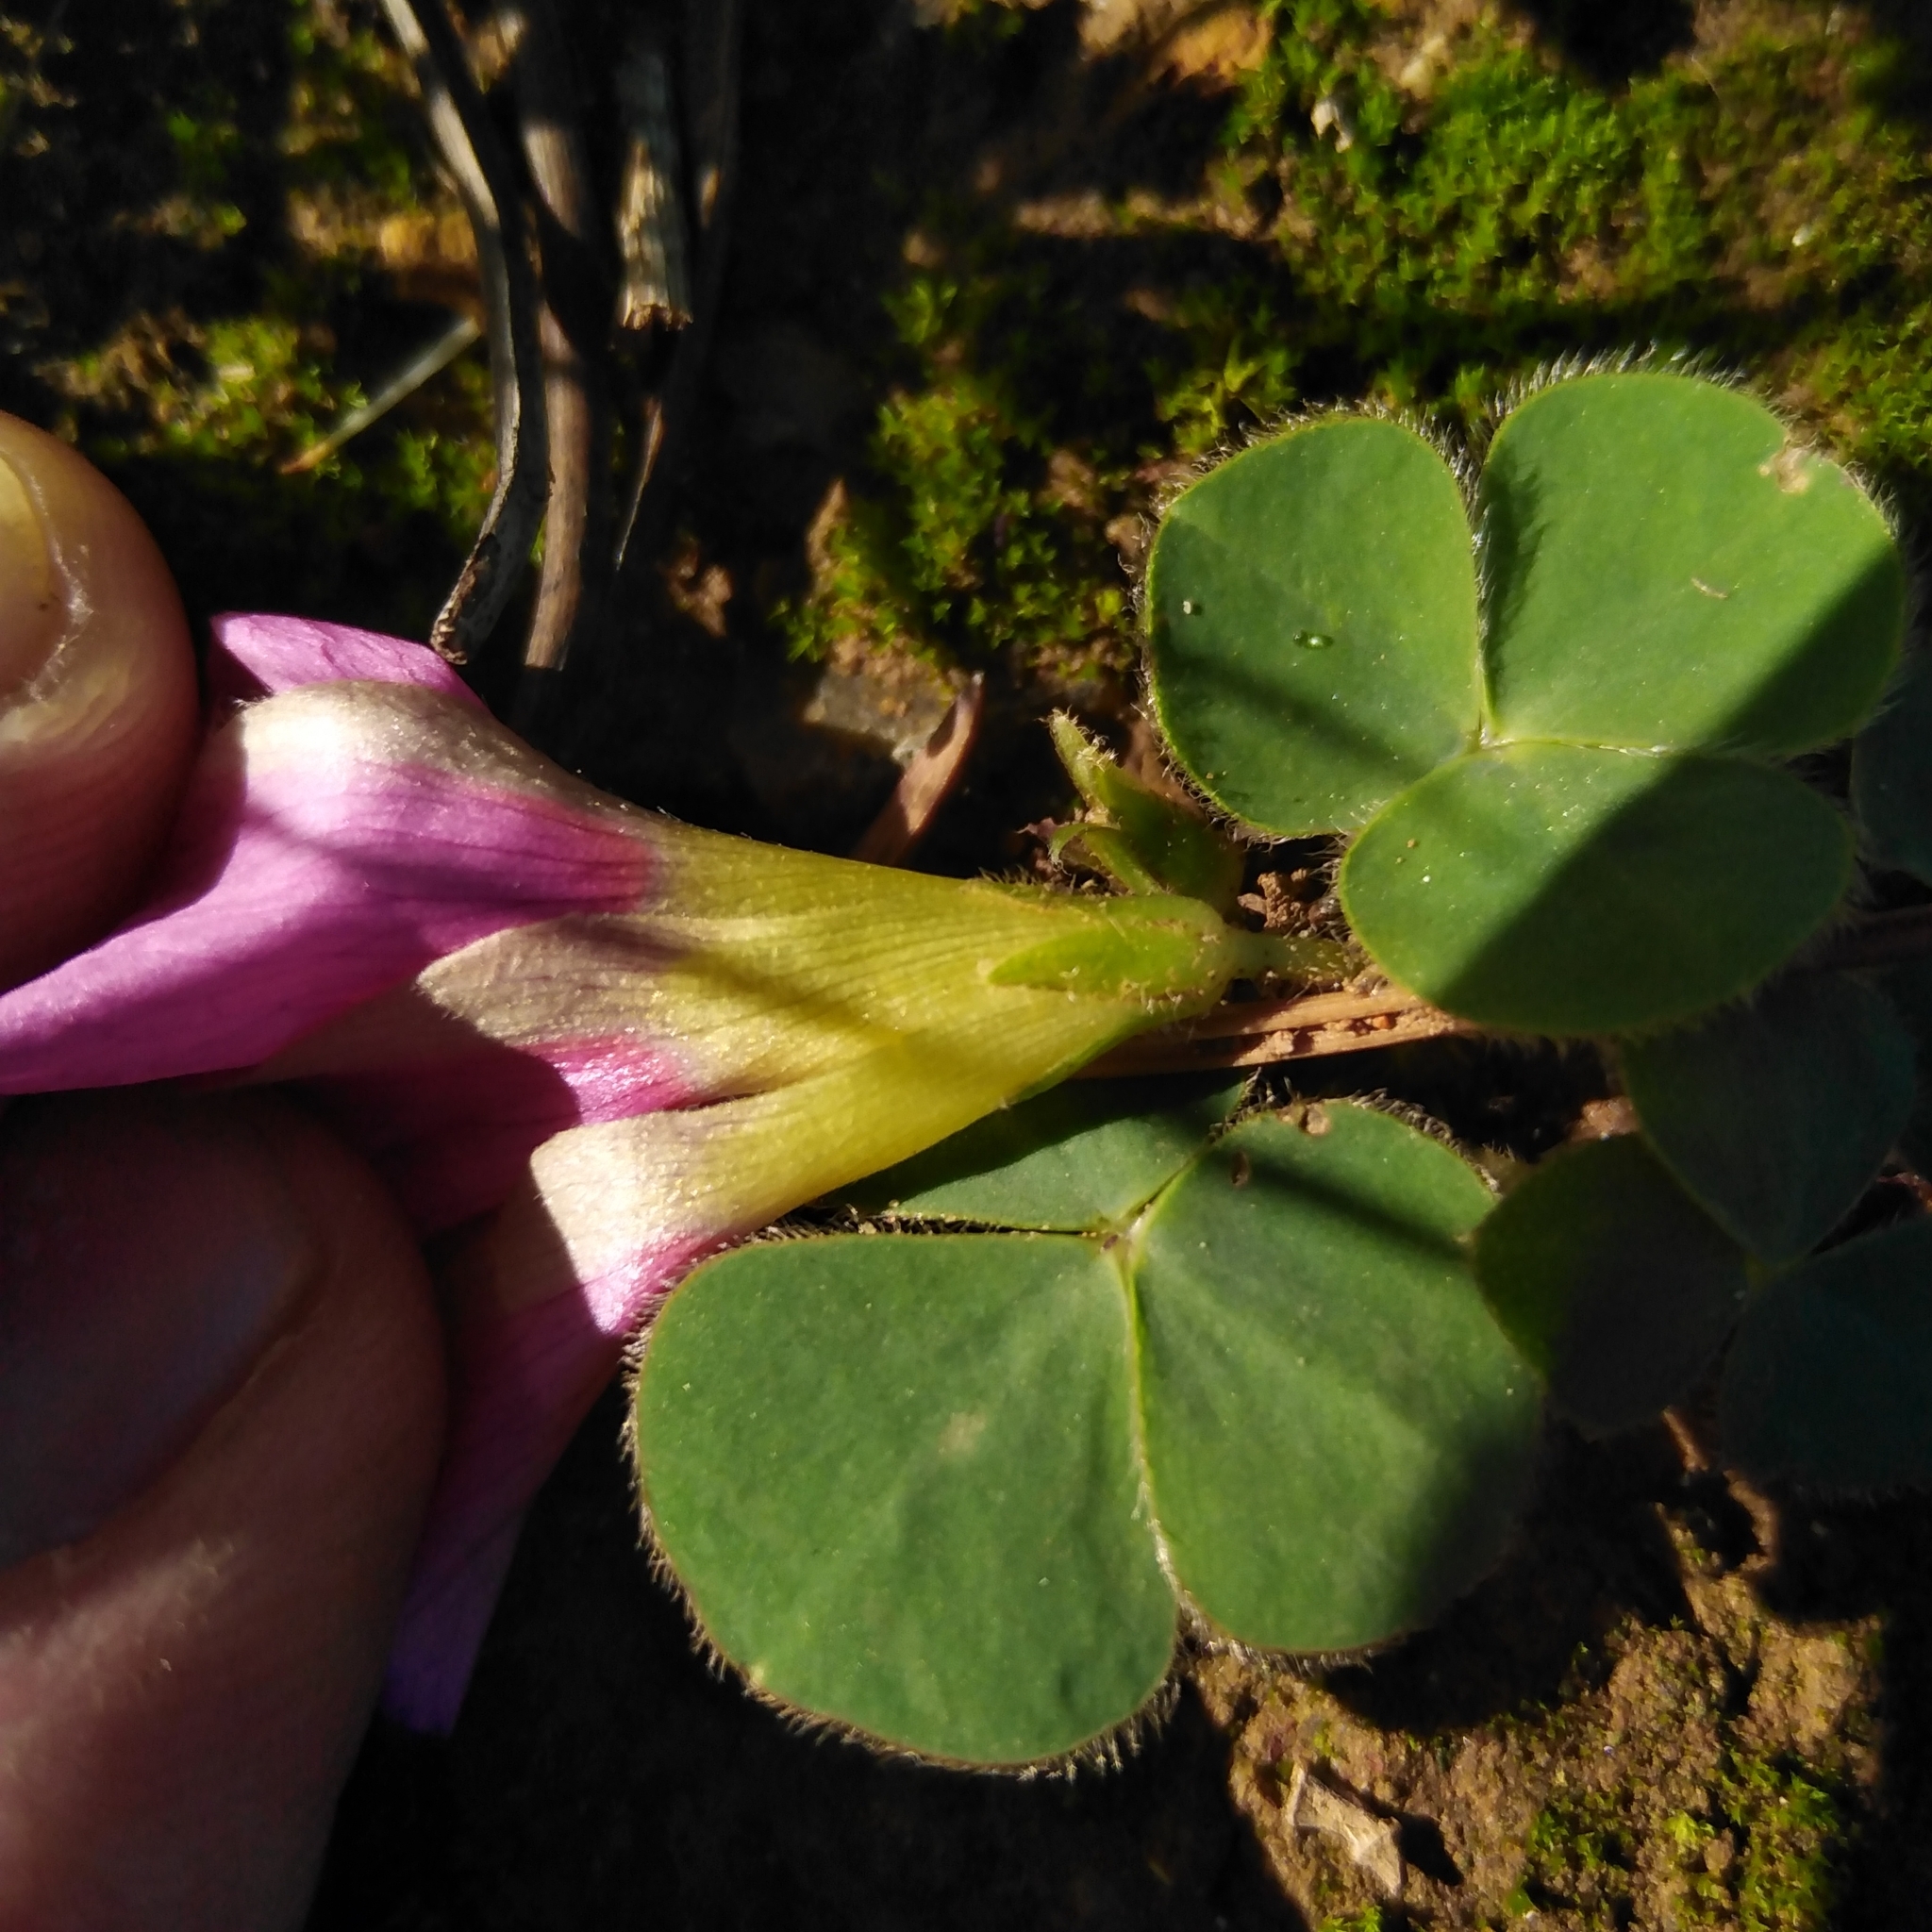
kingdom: Plantae
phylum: Tracheophyta
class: Magnoliopsida
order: Oxalidales
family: Oxalidaceae
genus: Oxalis
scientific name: Oxalis purpurea
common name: Purple woodsorrel
